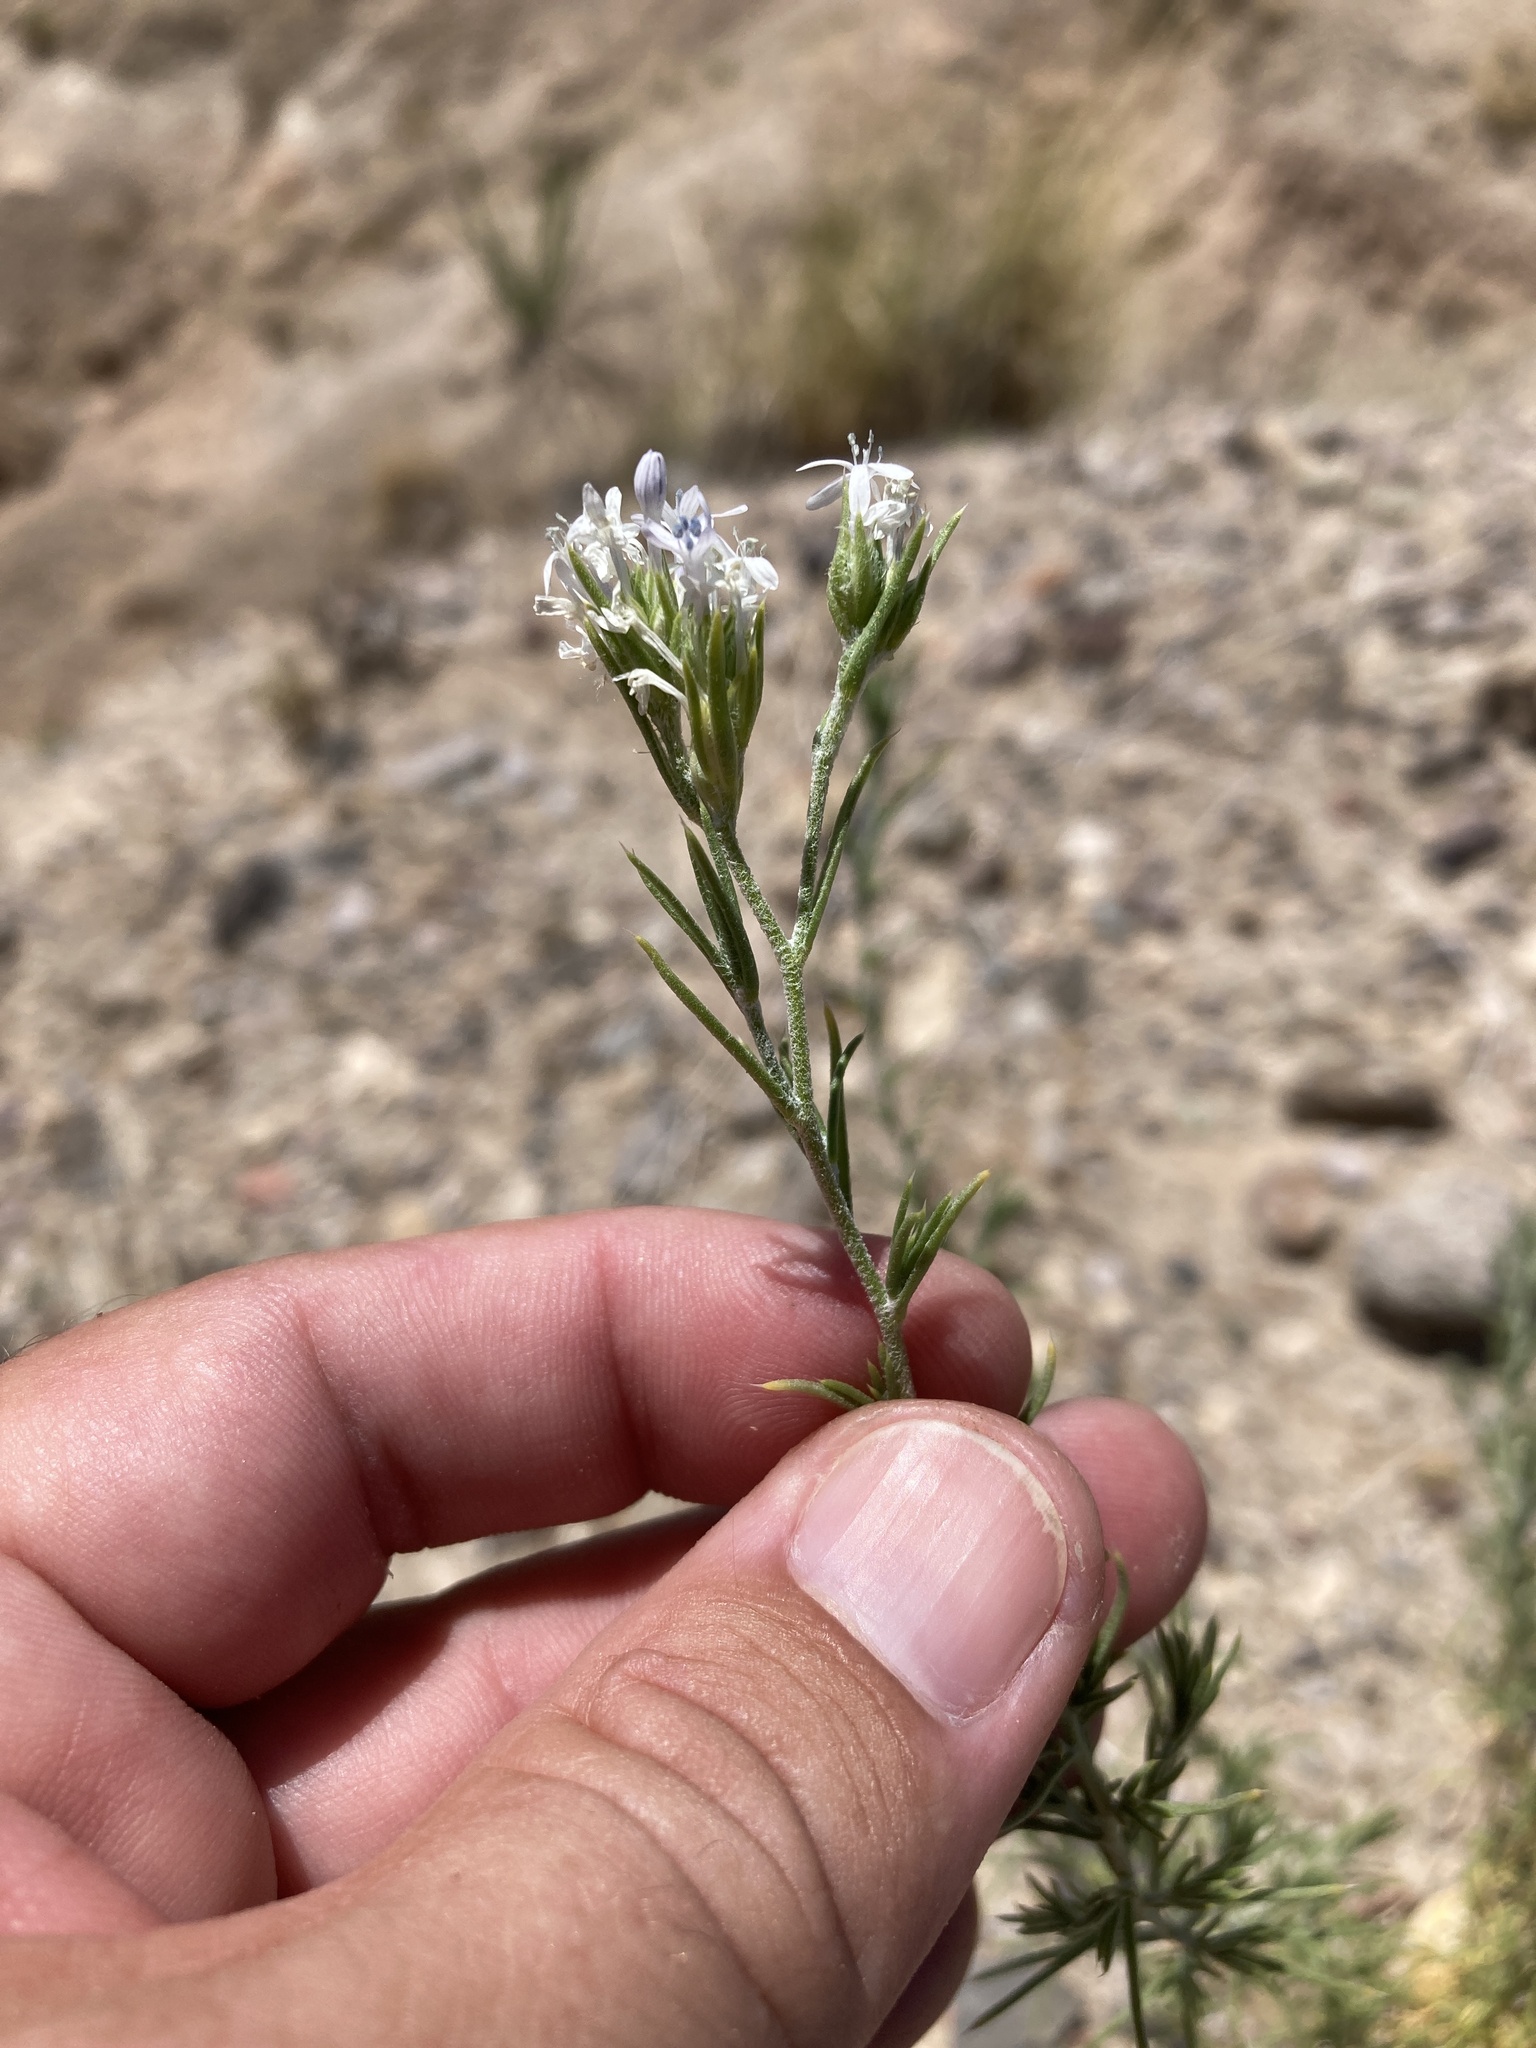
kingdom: Plantae
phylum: Tracheophyta
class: Magnoliopsida
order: Ericales
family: Polemoniaceae
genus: Ipomopsis
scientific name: Ipomopsis wrightii
